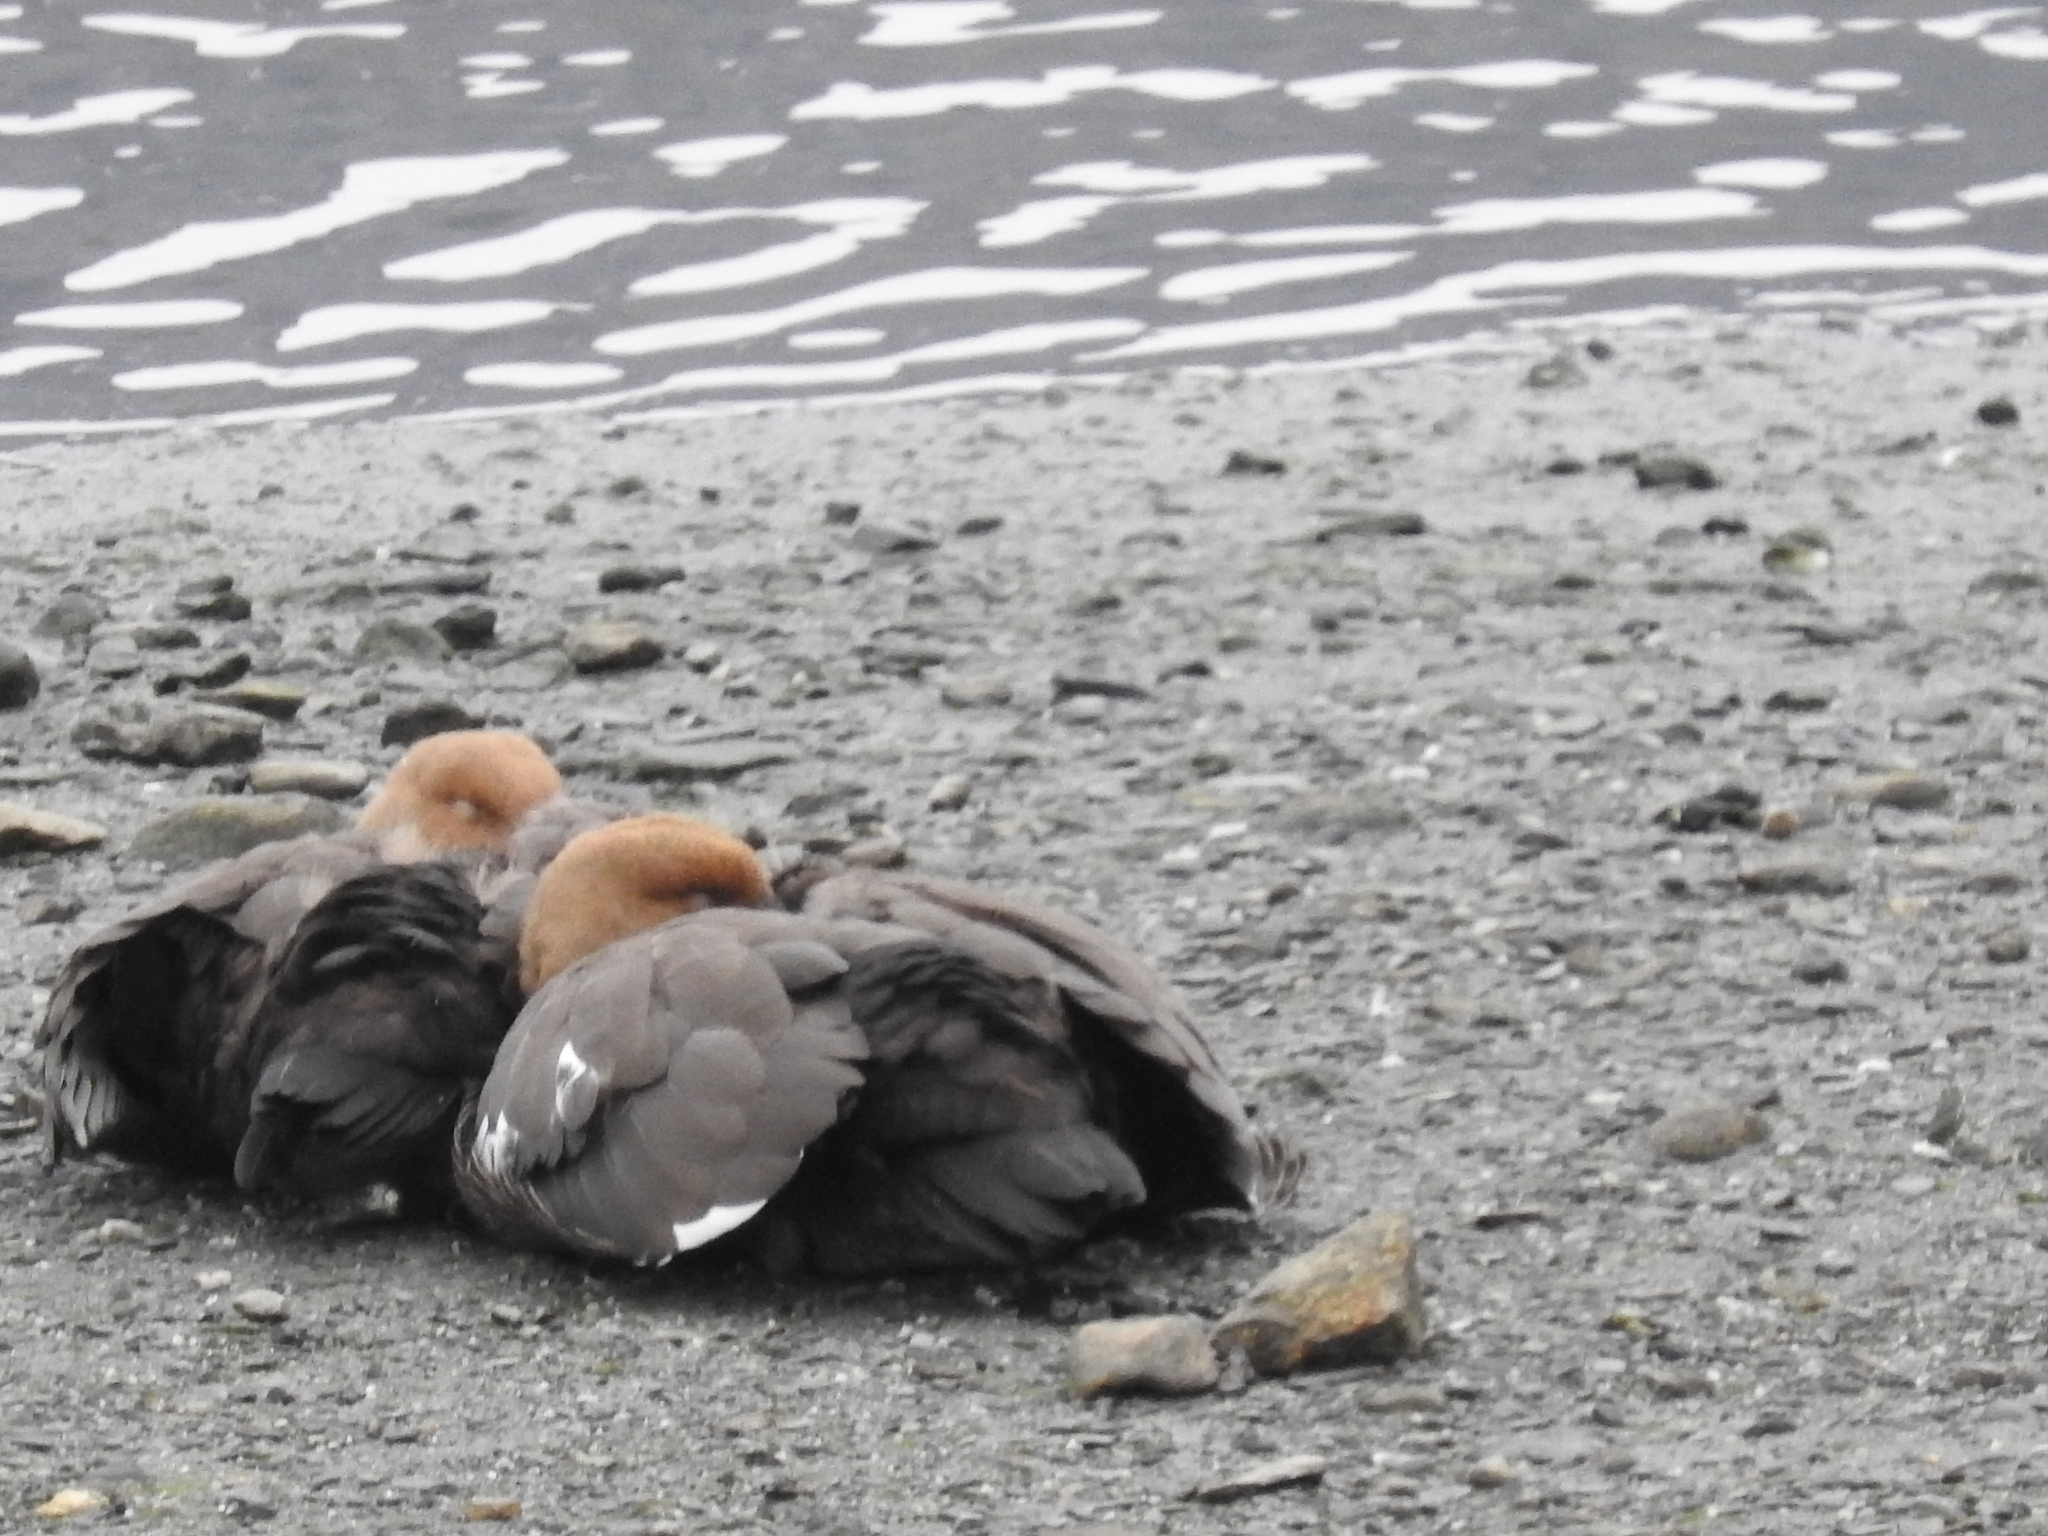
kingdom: Animalia
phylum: Chordata
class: Aves
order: Anseriformes
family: Anatidae
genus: Chloephaga
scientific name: Chloephaga picta
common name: Upland goose
